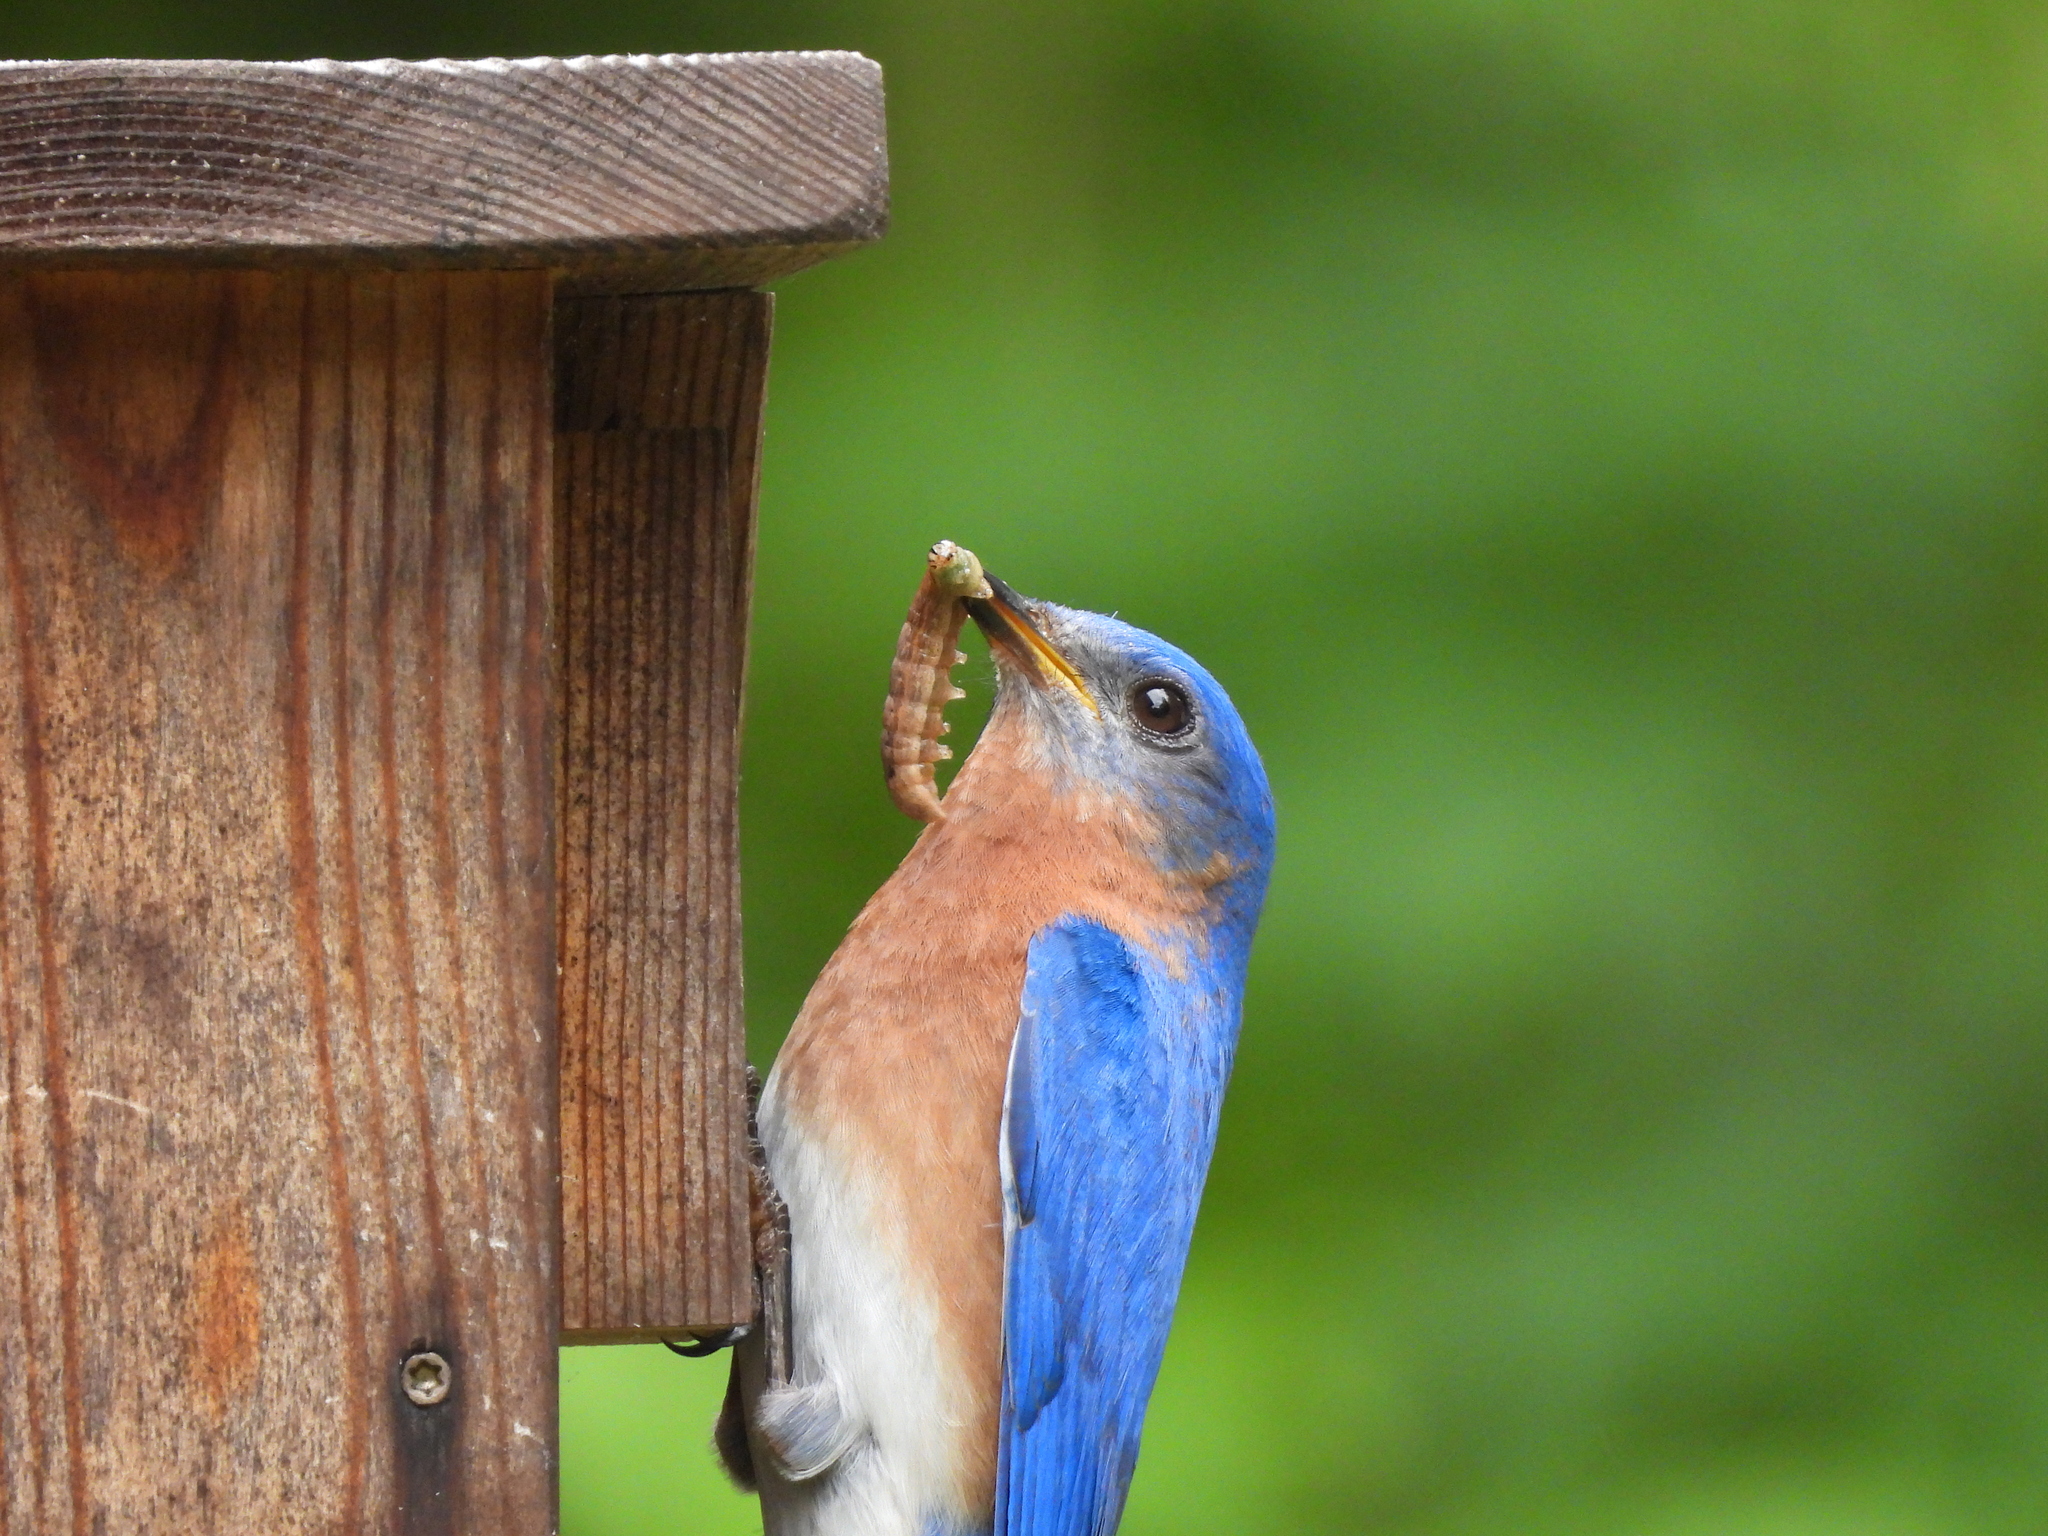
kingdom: Animalia
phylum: Chordata
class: Aves
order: Passeriformes
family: Turdidae
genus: Sialia
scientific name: Sialia sialis
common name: Eastern bluebird
